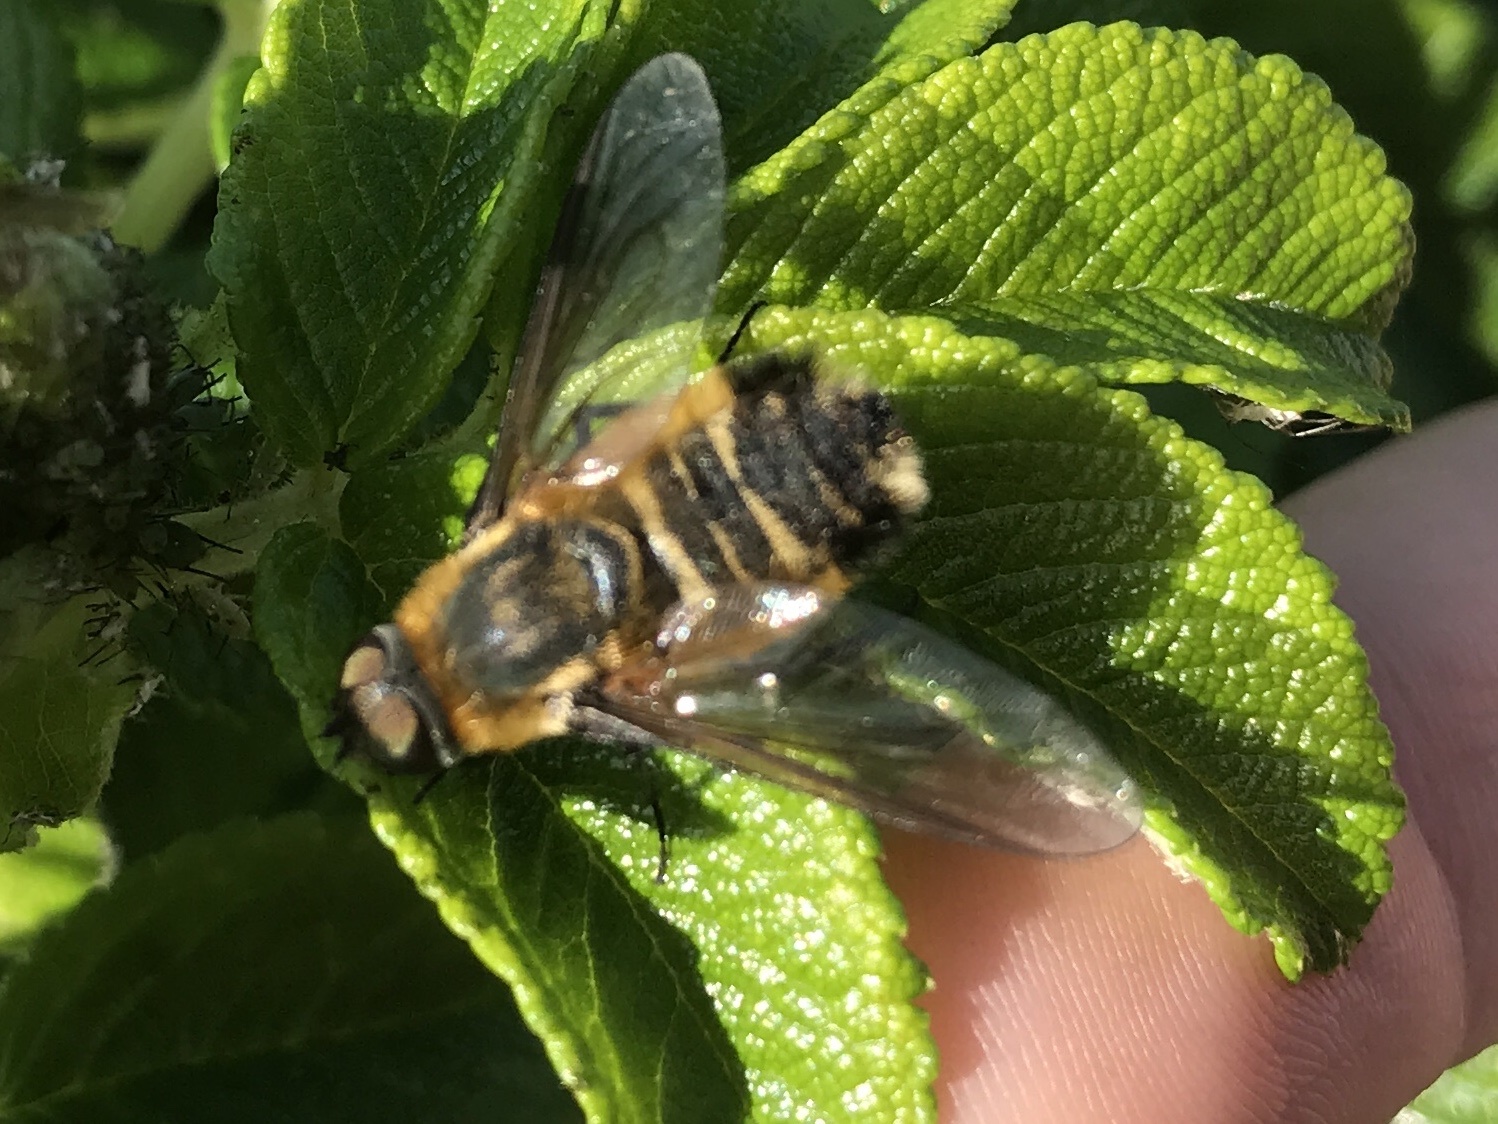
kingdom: Animalia
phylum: Arthropoda
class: Insecta
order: Diptera
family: Bombyliidae
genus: Villa
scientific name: Villa modesta
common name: Dune villa
